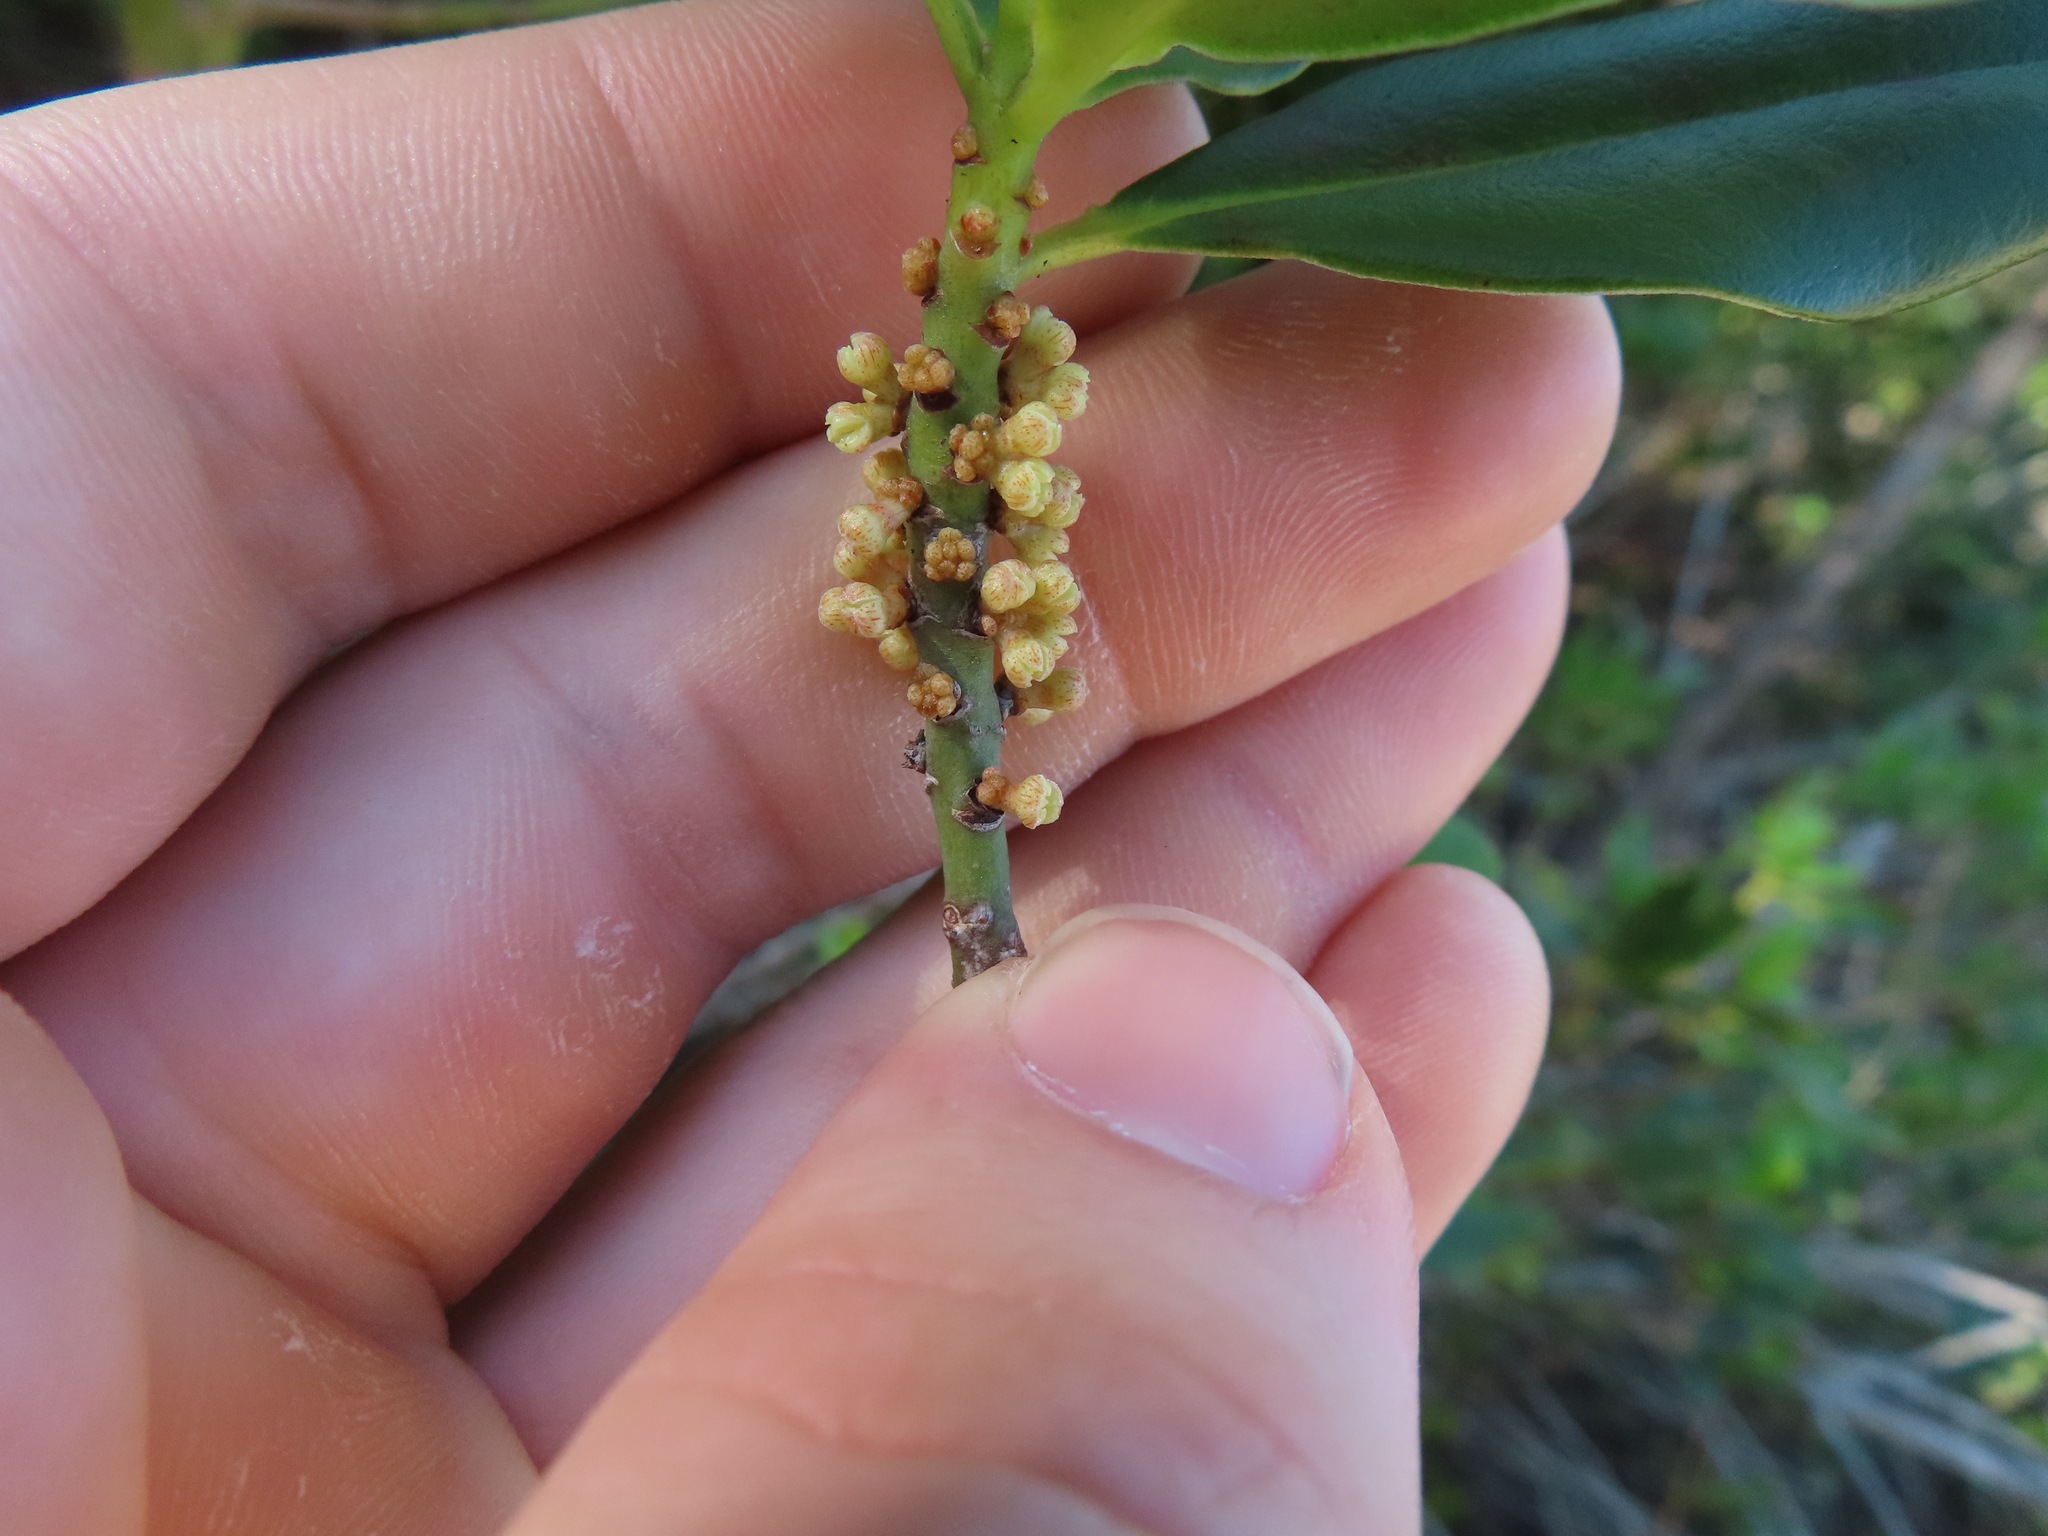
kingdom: Plantae
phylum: Tracheophyta
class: Magnoliopsida
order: Ericales
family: Primulaceae
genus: Myrsine
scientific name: Myrsine floridana
